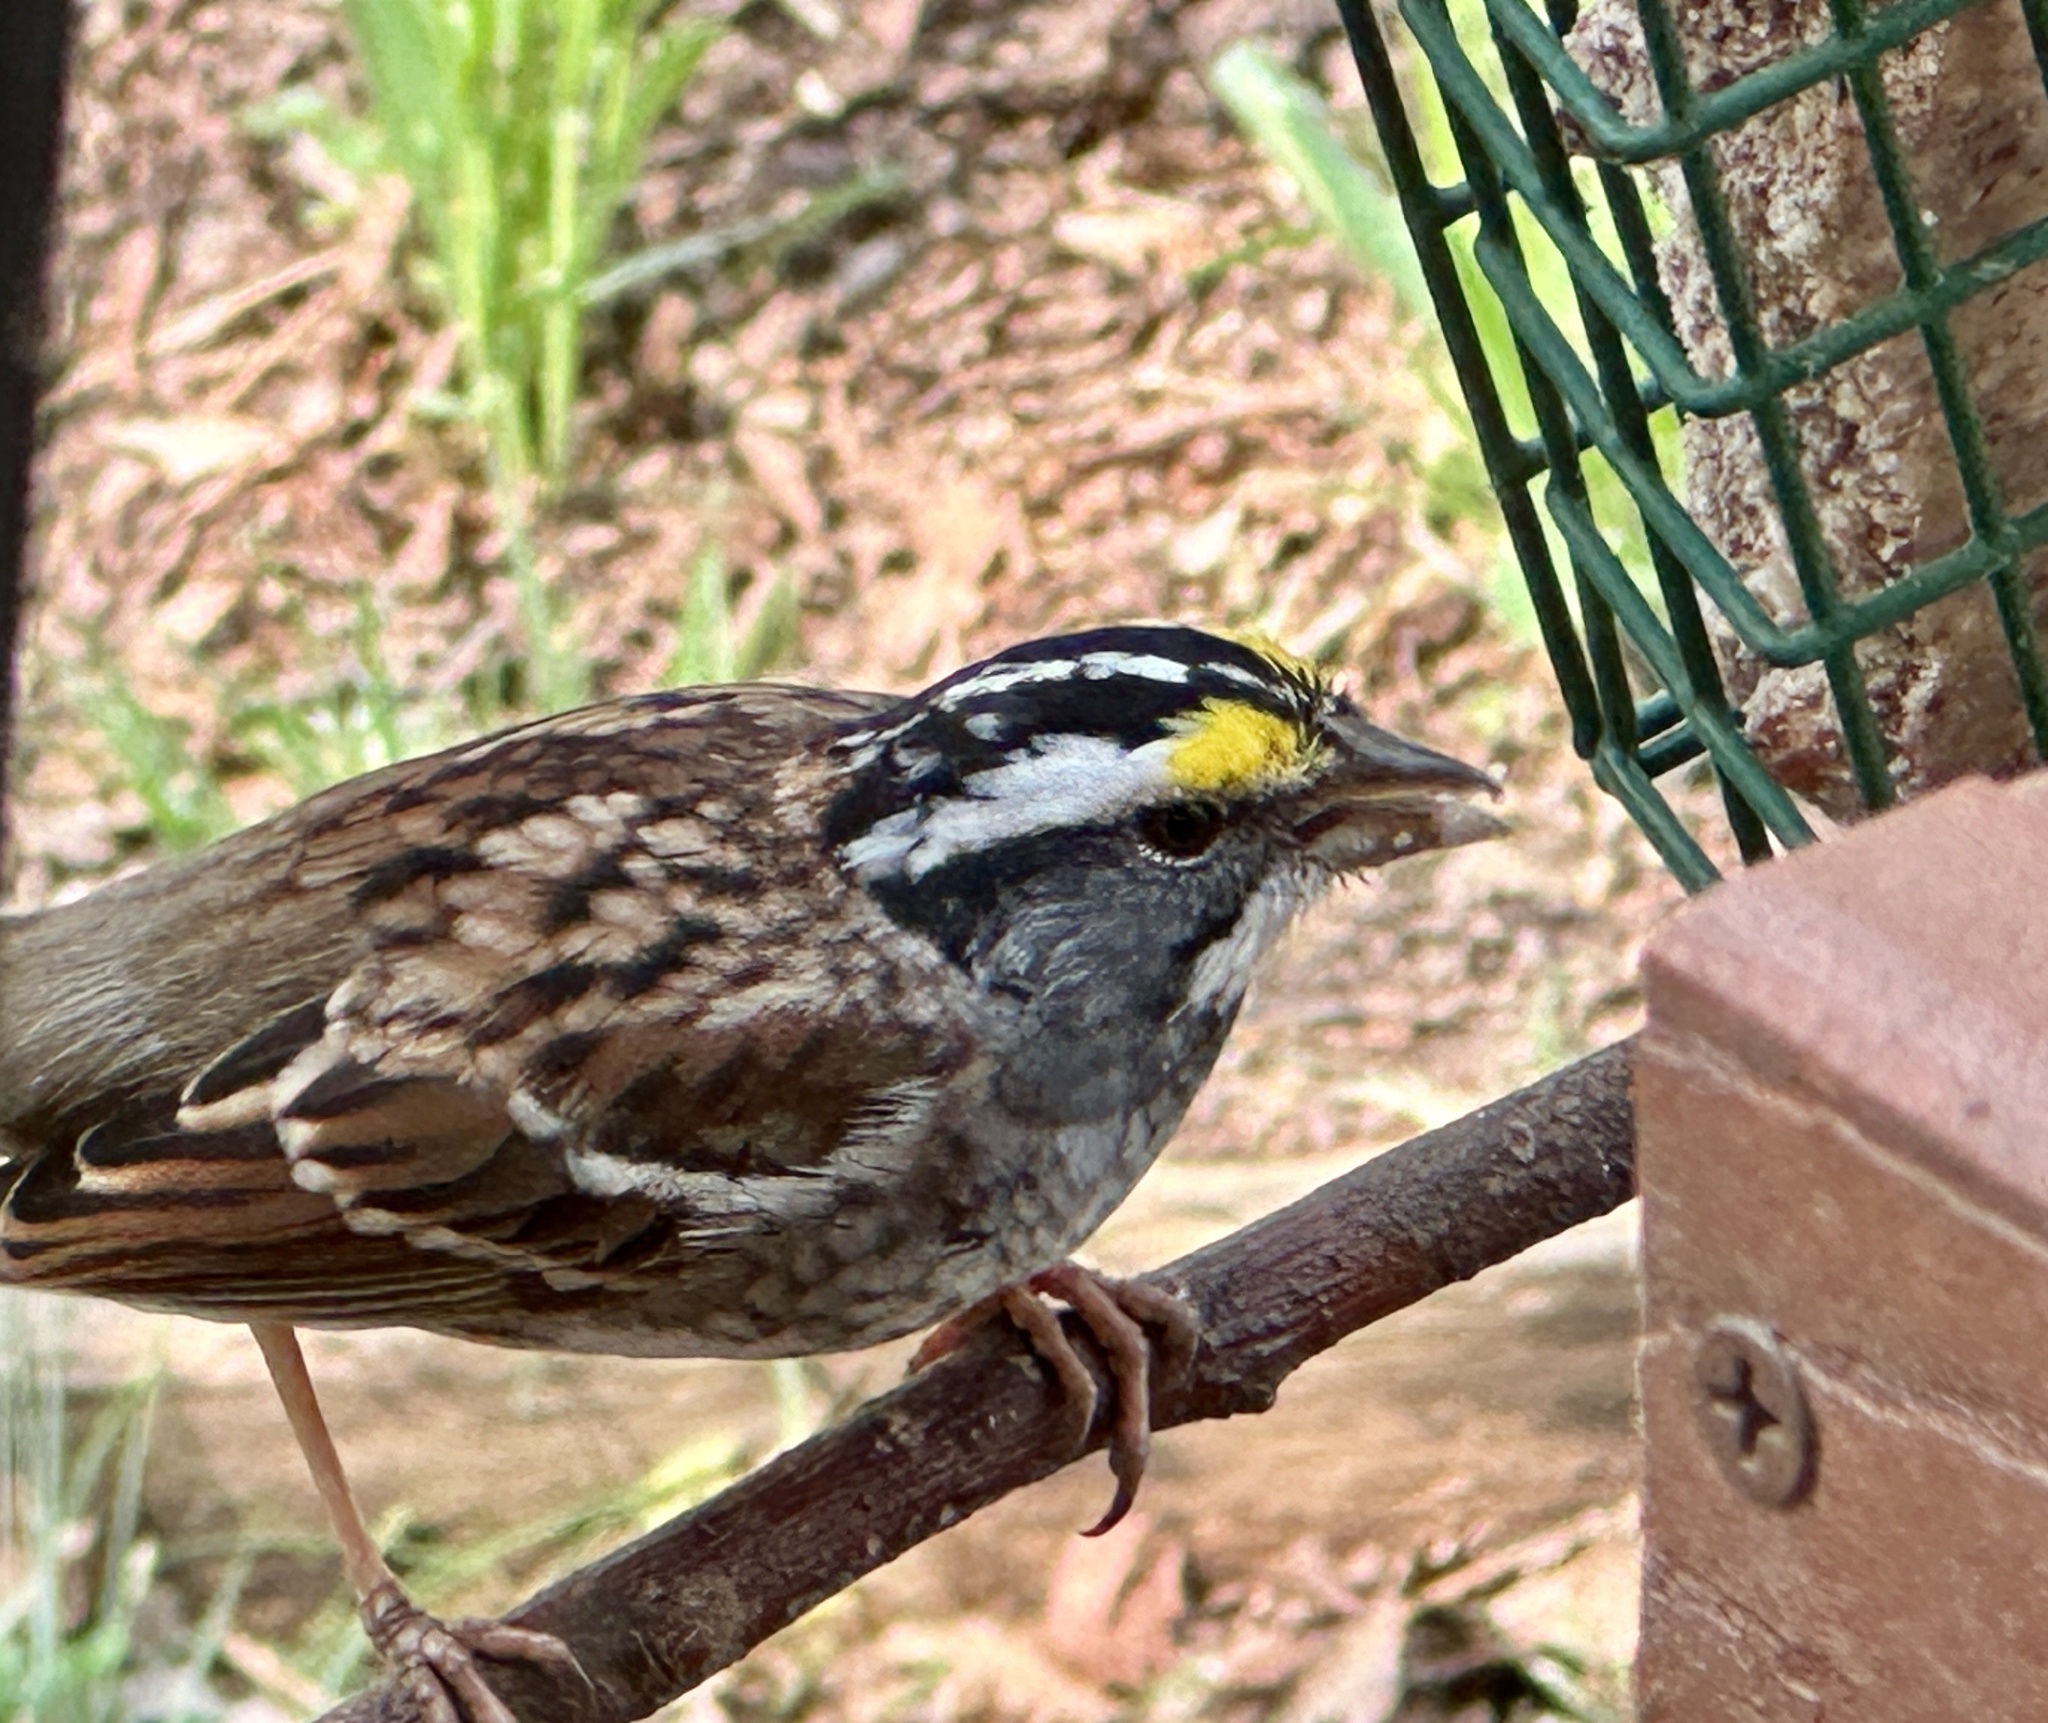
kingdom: Animalia
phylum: Chordata
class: Aves
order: Passeriformes
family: Passerellidae
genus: Zonotrichia
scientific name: Zonotrichia albicollis
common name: White-throated sparrow
